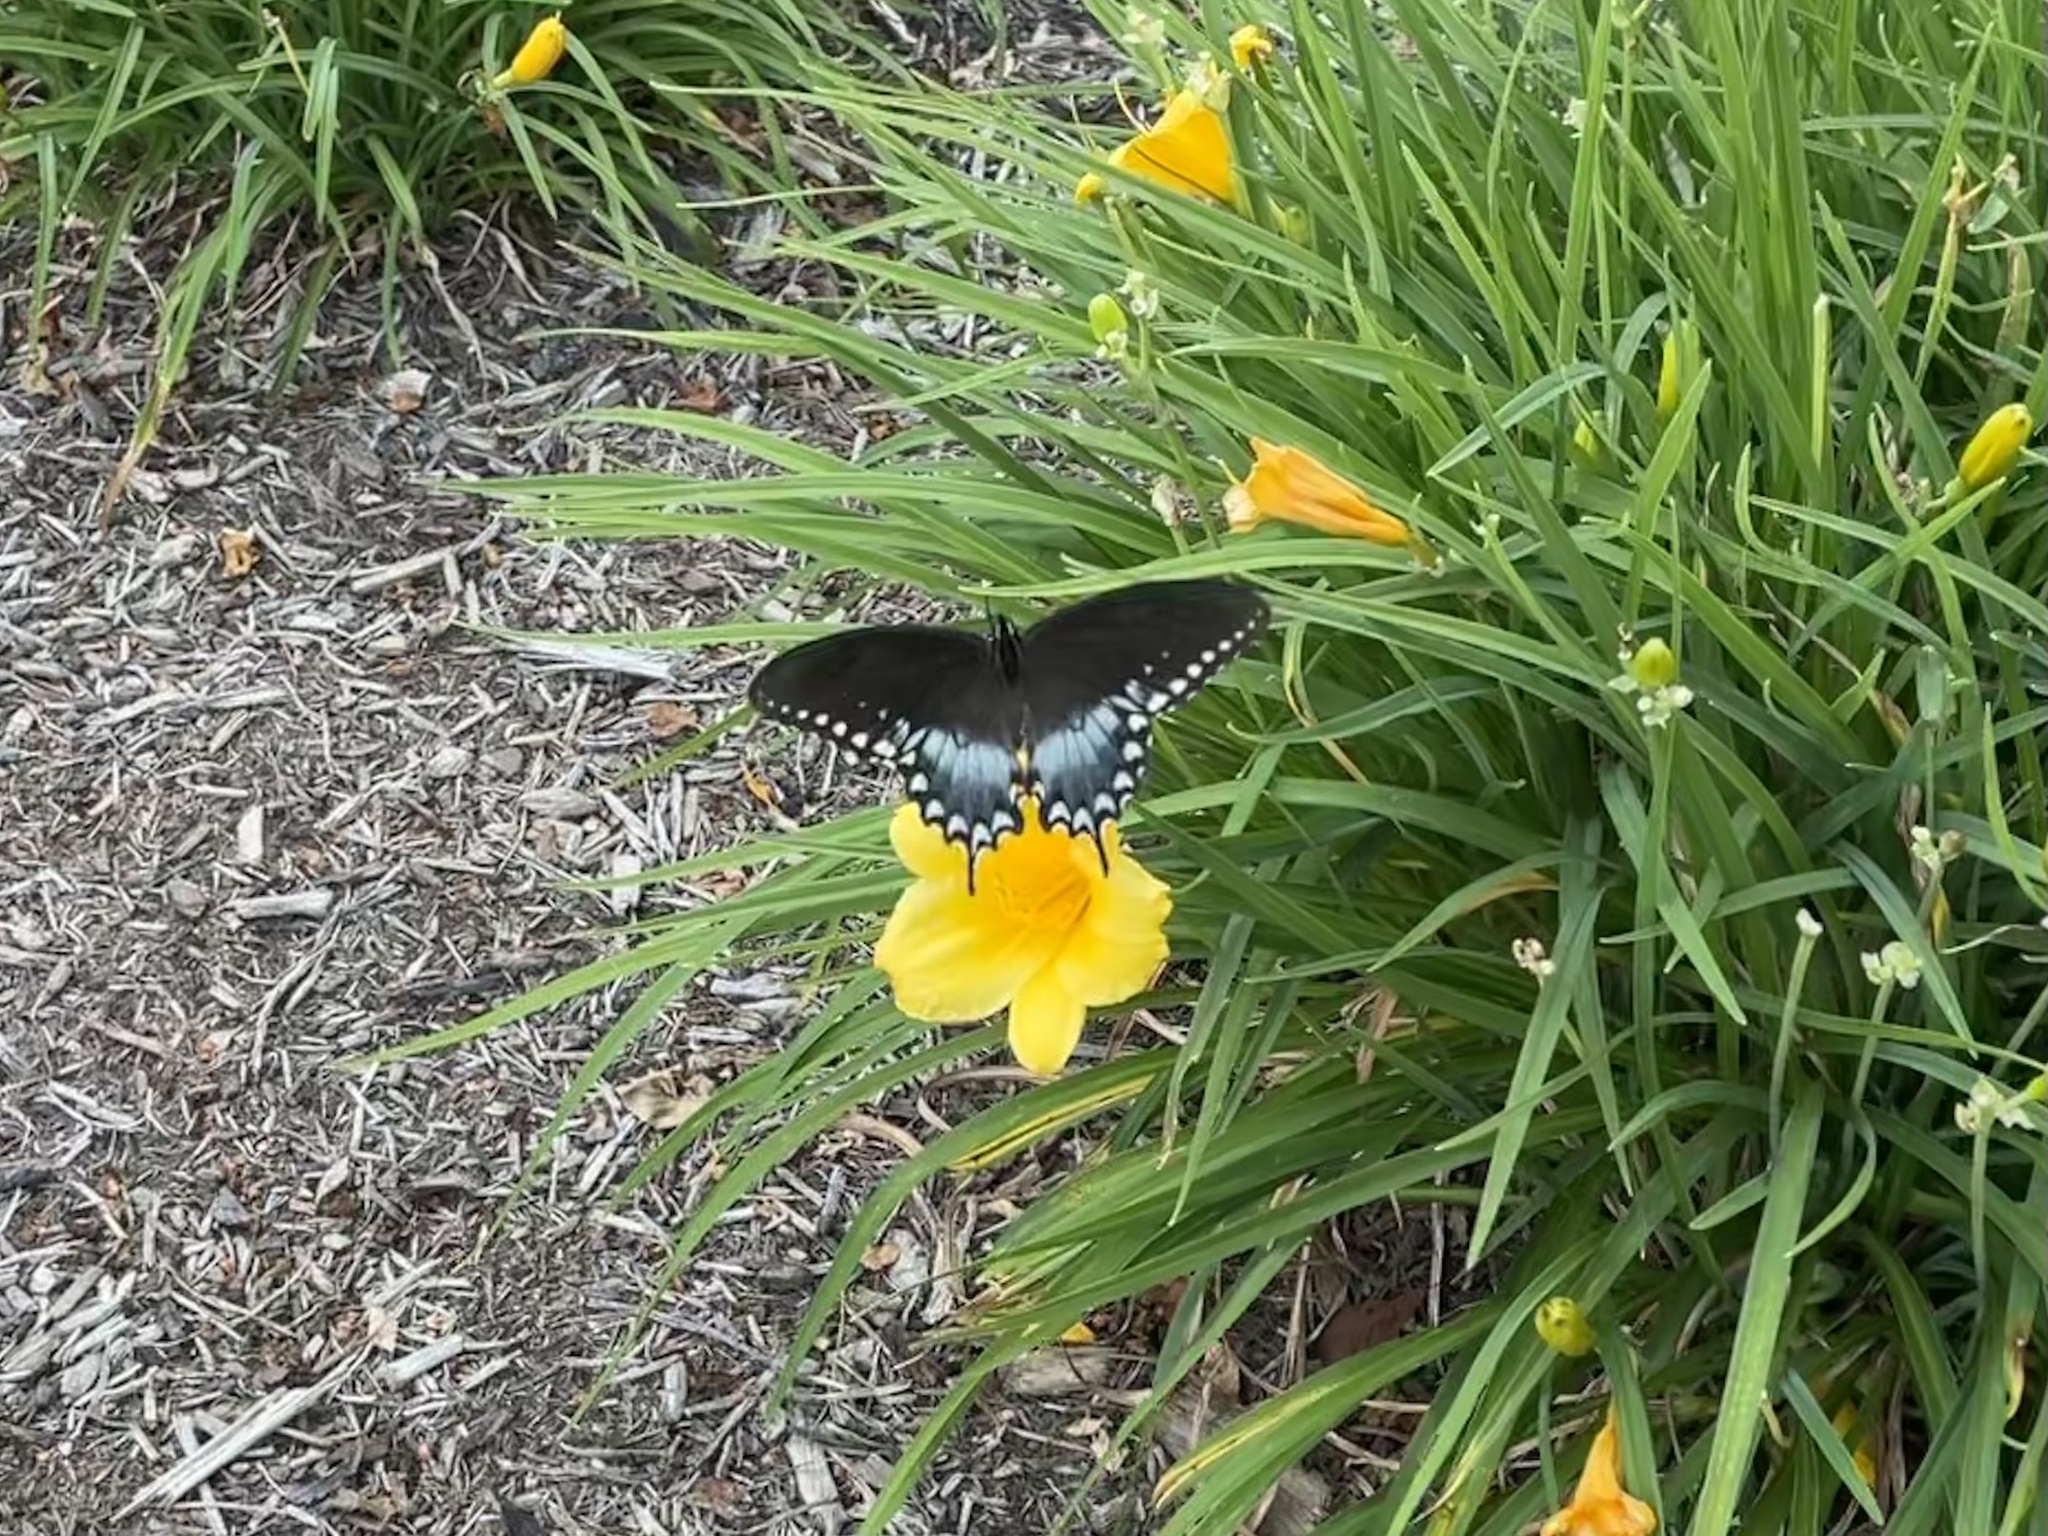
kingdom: Animalia
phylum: Arthropoda
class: Insecta
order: Lepidoptera
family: Papilionidae
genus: Papilio
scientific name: Papilio troilus
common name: Spicebush swallowtail
